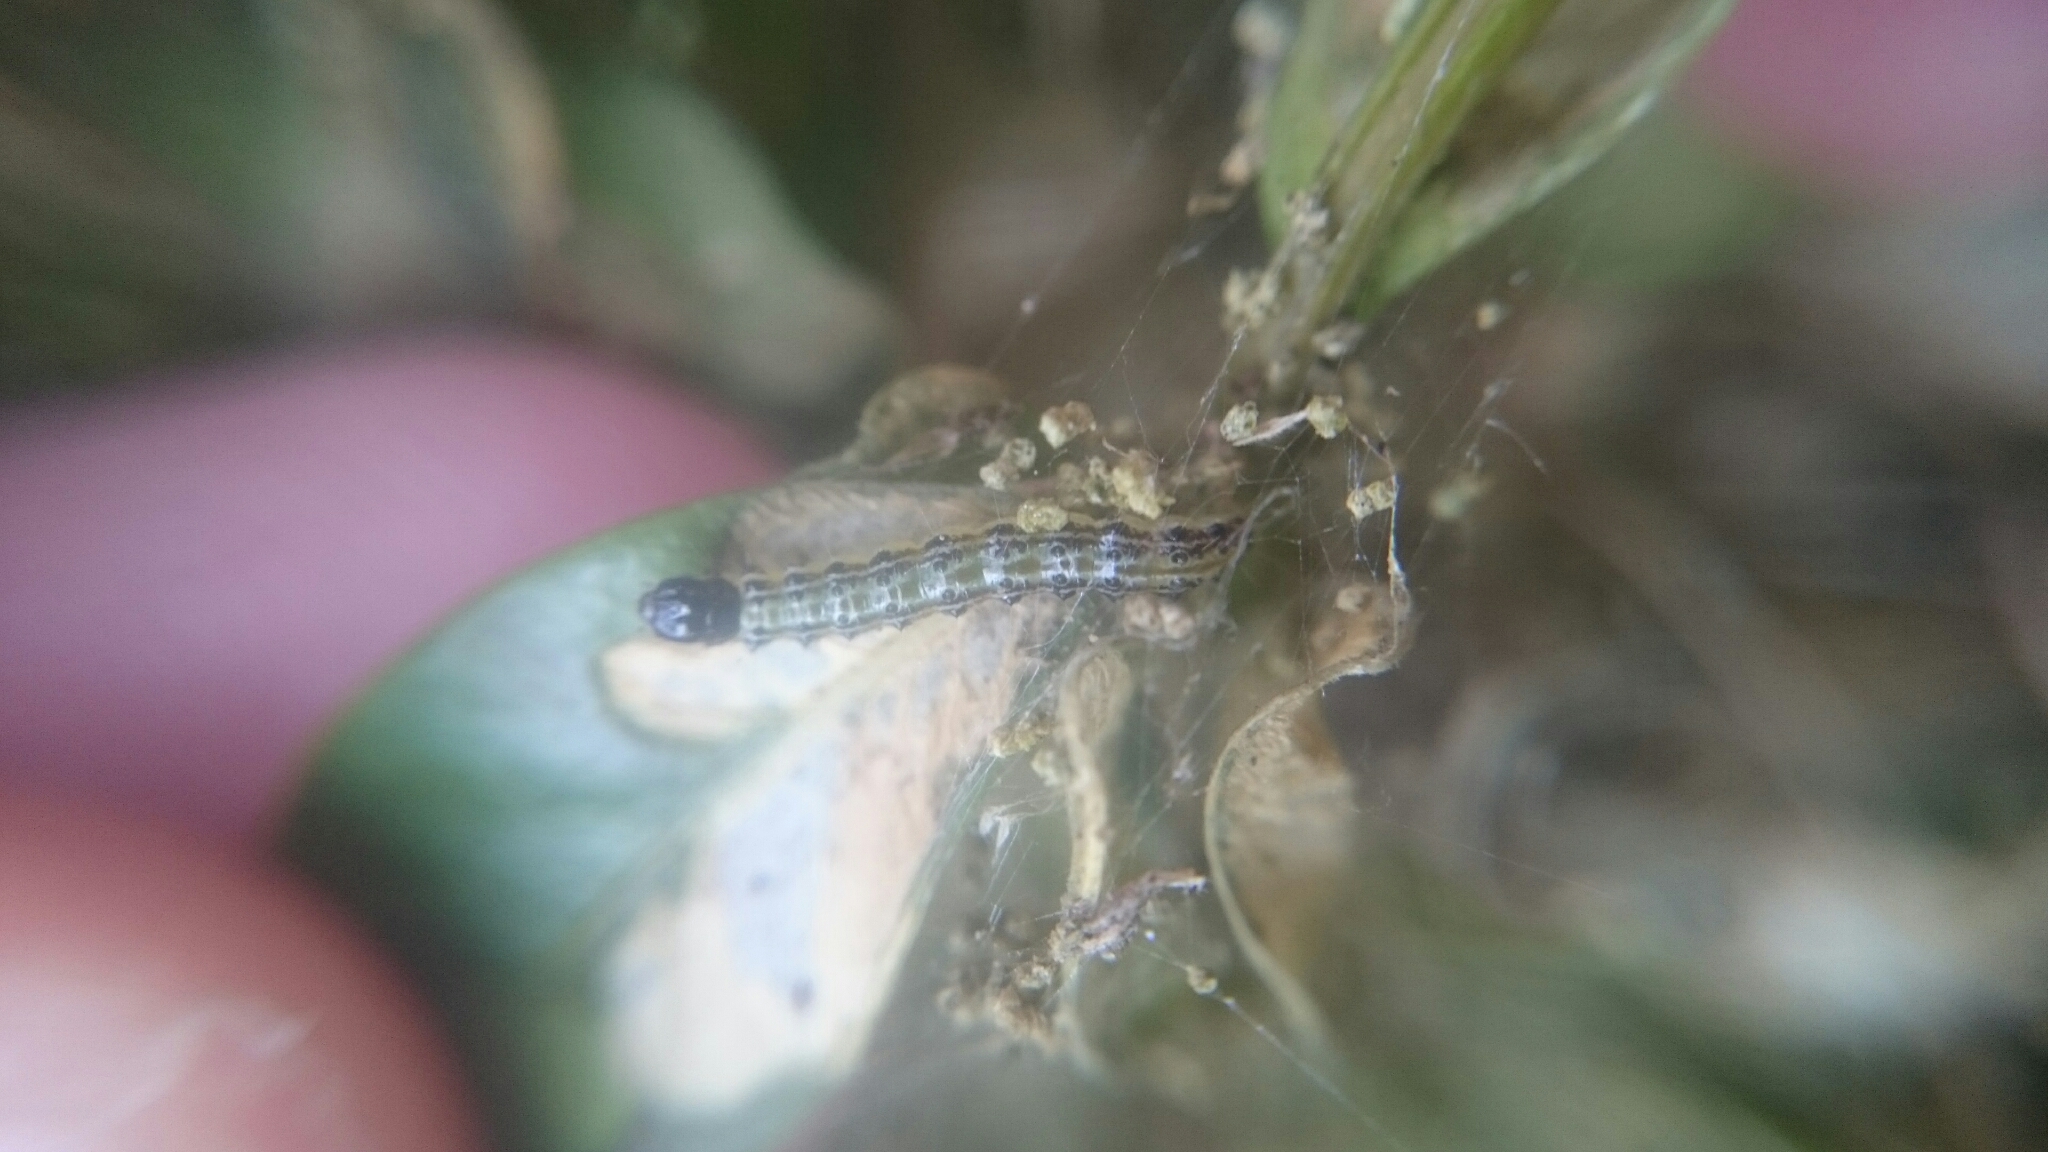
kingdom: Animalia
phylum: Arthropoda
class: Insecta
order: Lepidoptera
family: Crambidae
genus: Cydalima
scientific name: Cydalima perspectalis
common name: Box tree moth
